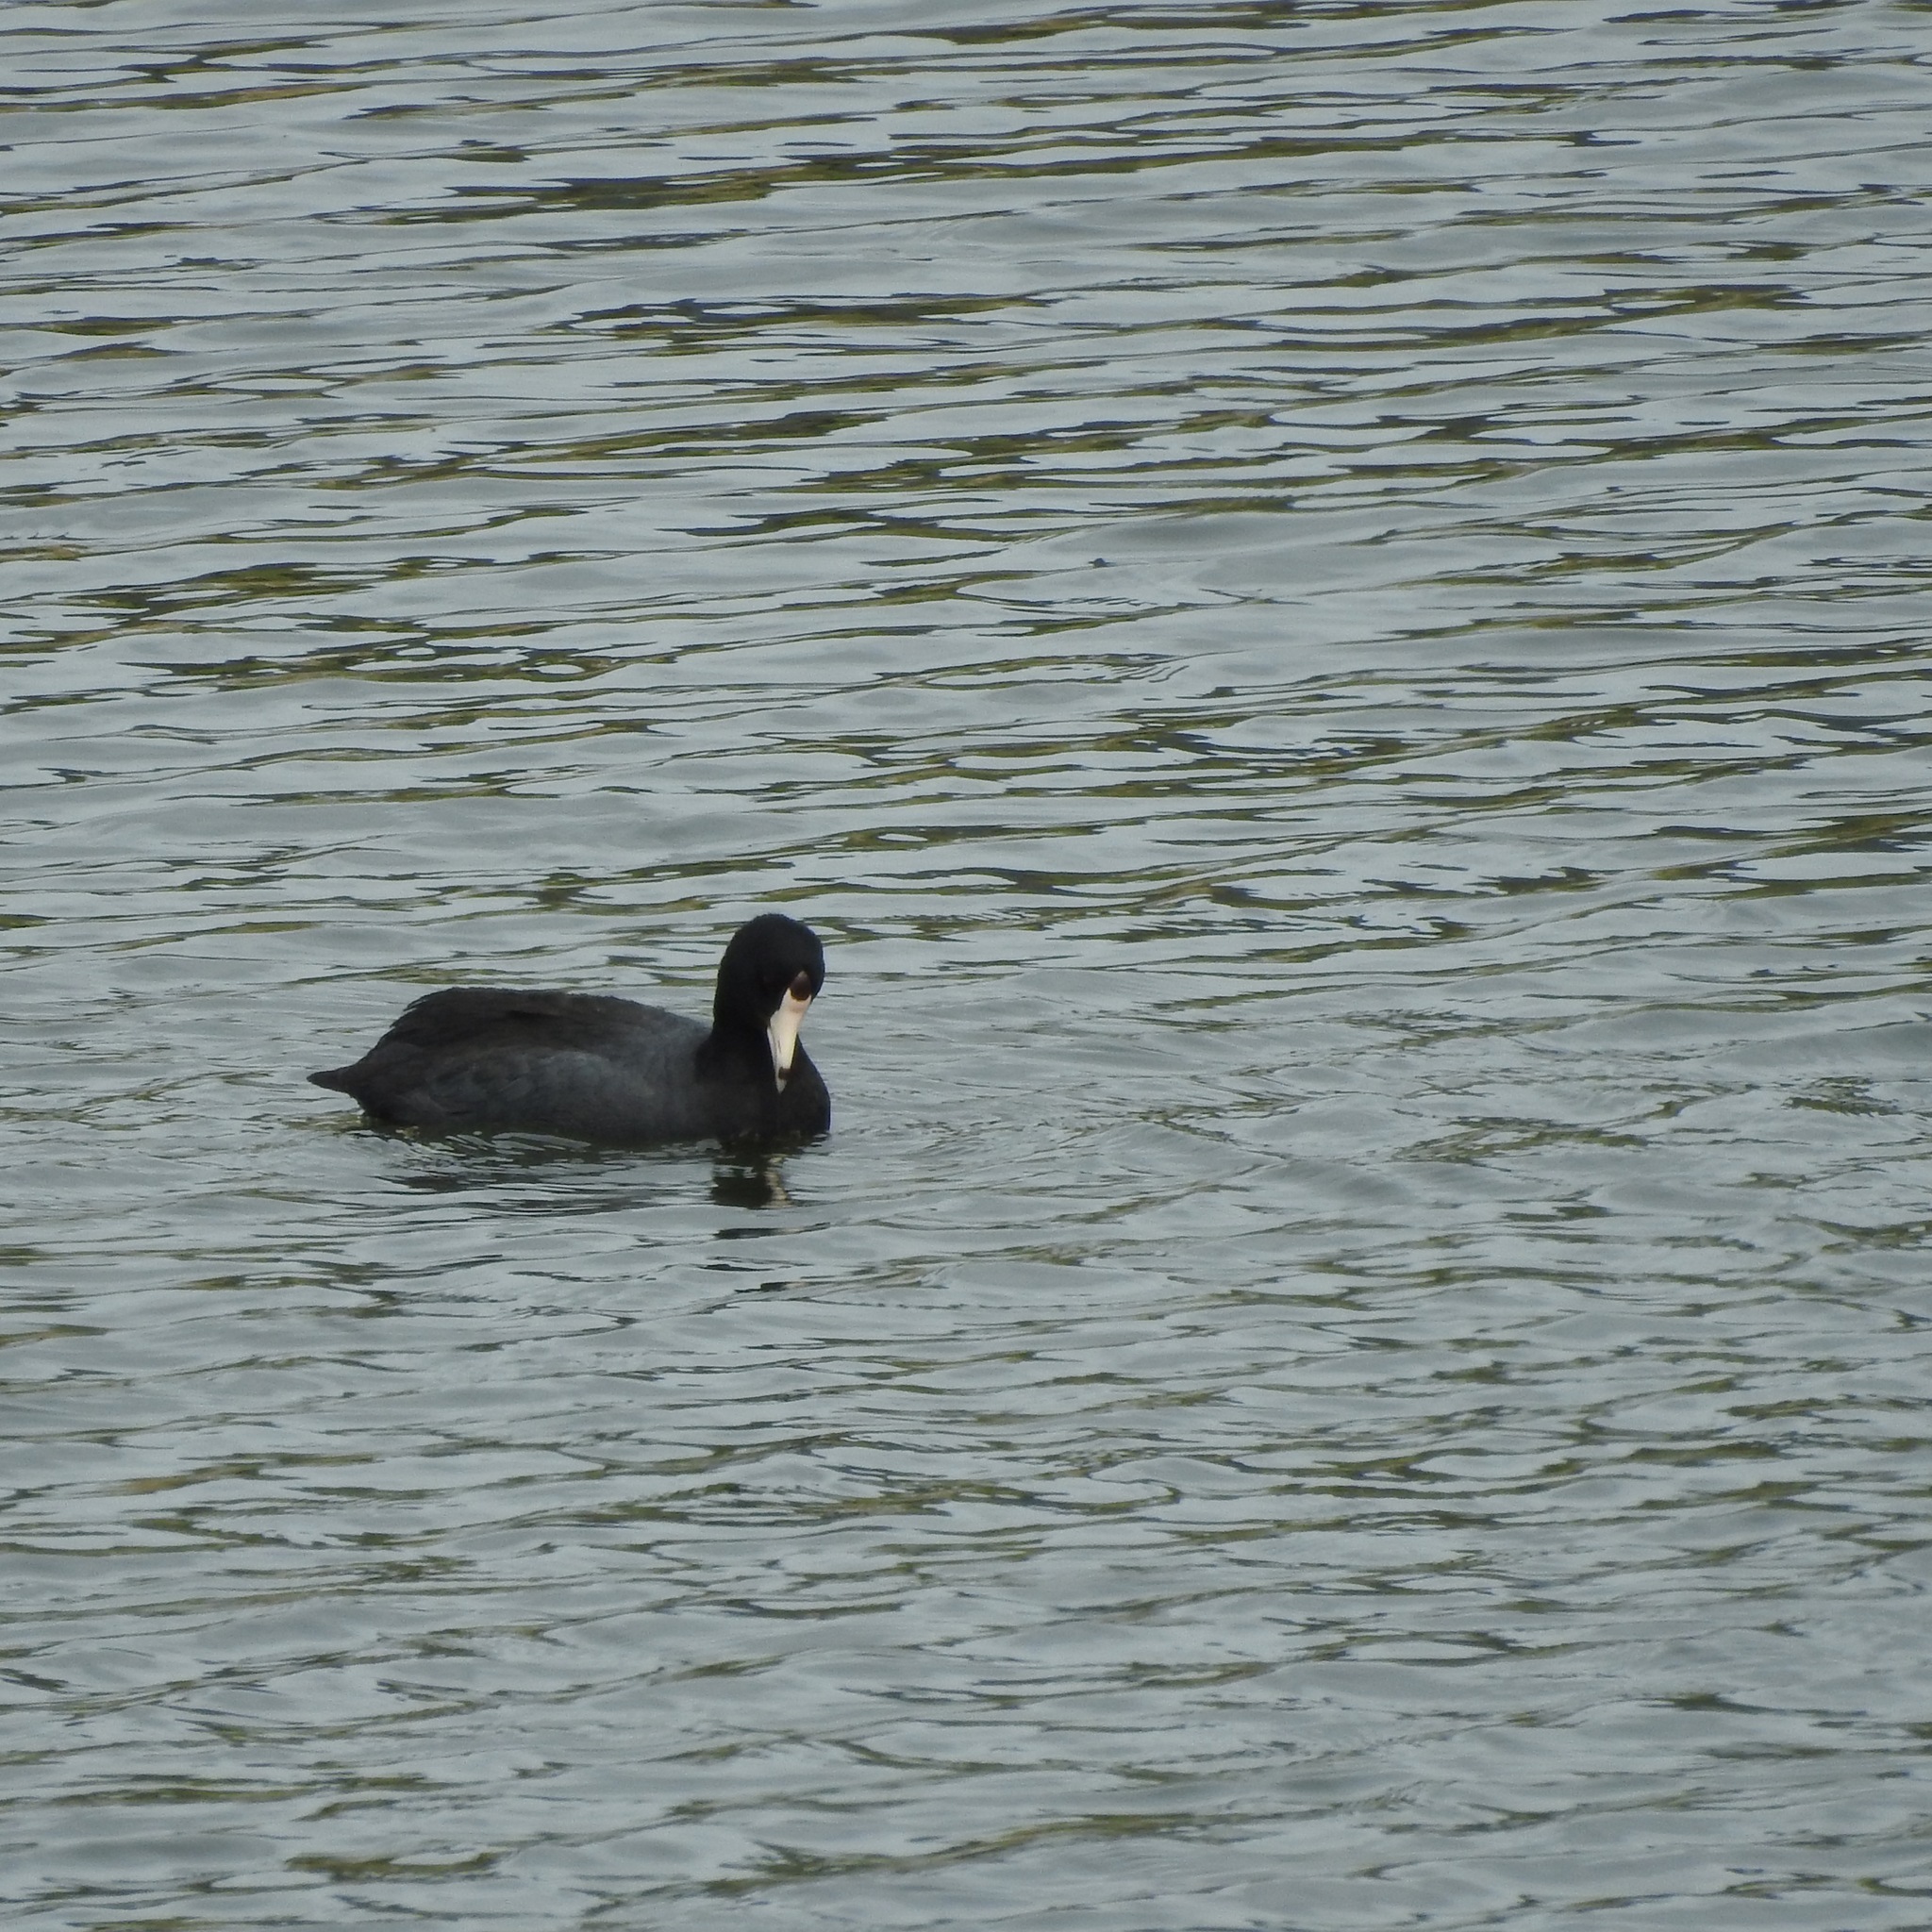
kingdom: Animalia
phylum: Chordata
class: Aves
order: Gruiformes
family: Rallidae
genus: Fulica
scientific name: Fulica americana
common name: American coot
